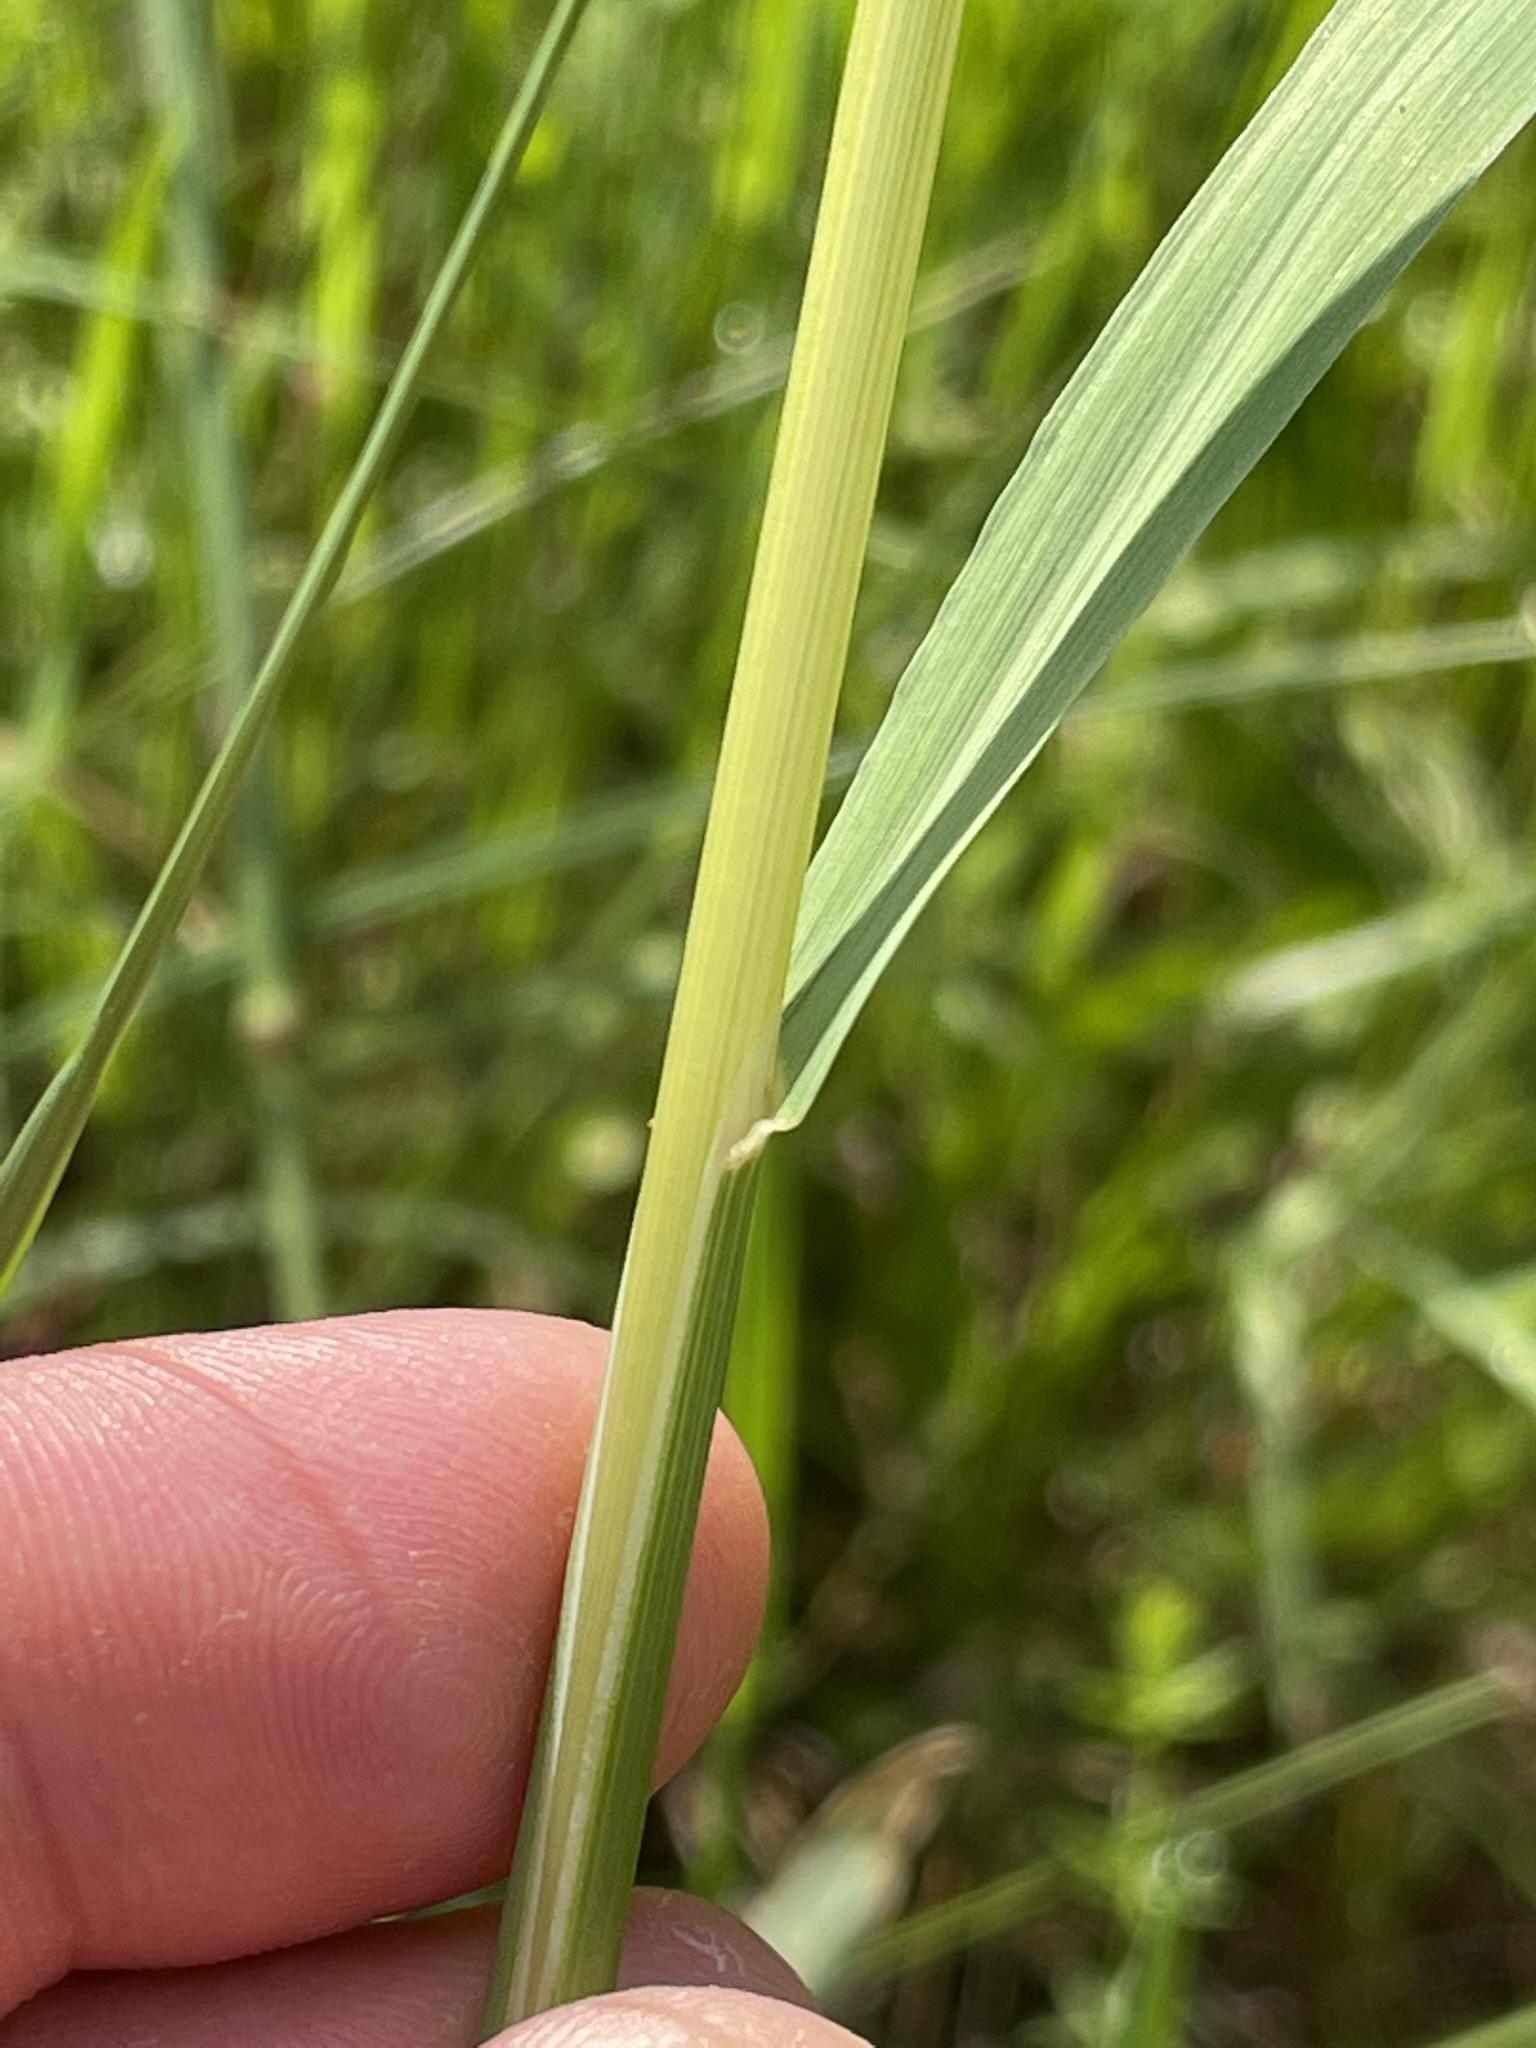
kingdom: Plantae
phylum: Tracheophyta
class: Liliopsida
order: Poales
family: Poaceae
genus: Arrhenatherum
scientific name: Arrhenatherum elatius
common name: Tall oatgrass
